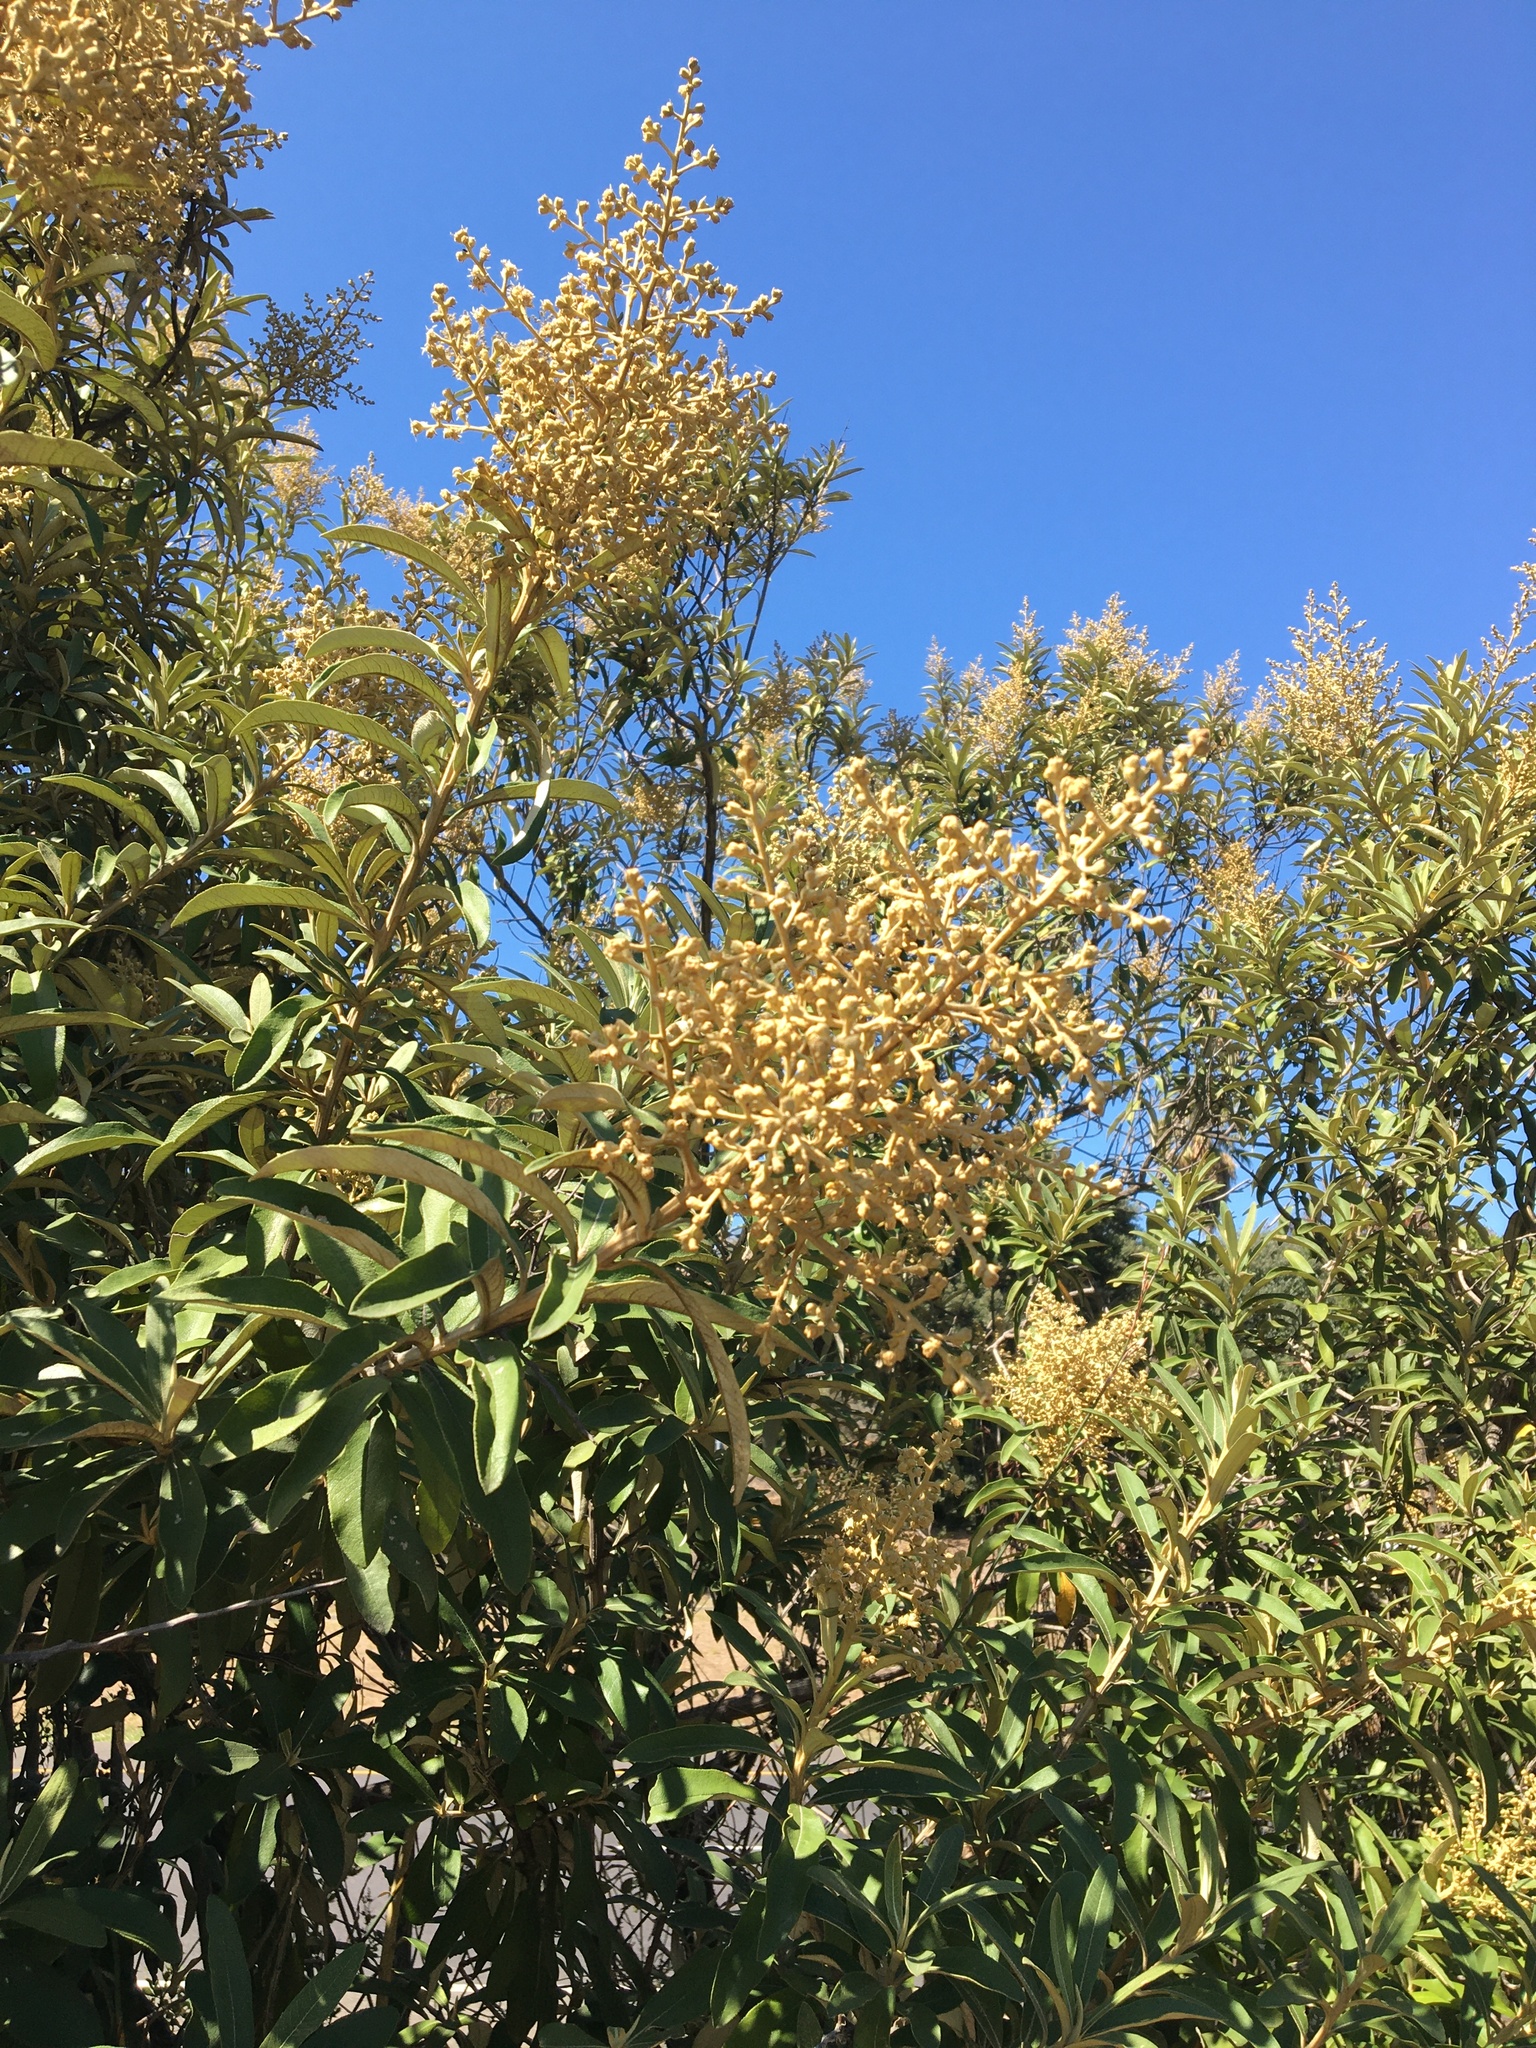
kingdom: Plantae
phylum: Tracheophyta
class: Magnoliopsida
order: Asterales
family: Asteraceae
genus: Tarchonanthus
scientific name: Tarchonanthus littoralis
